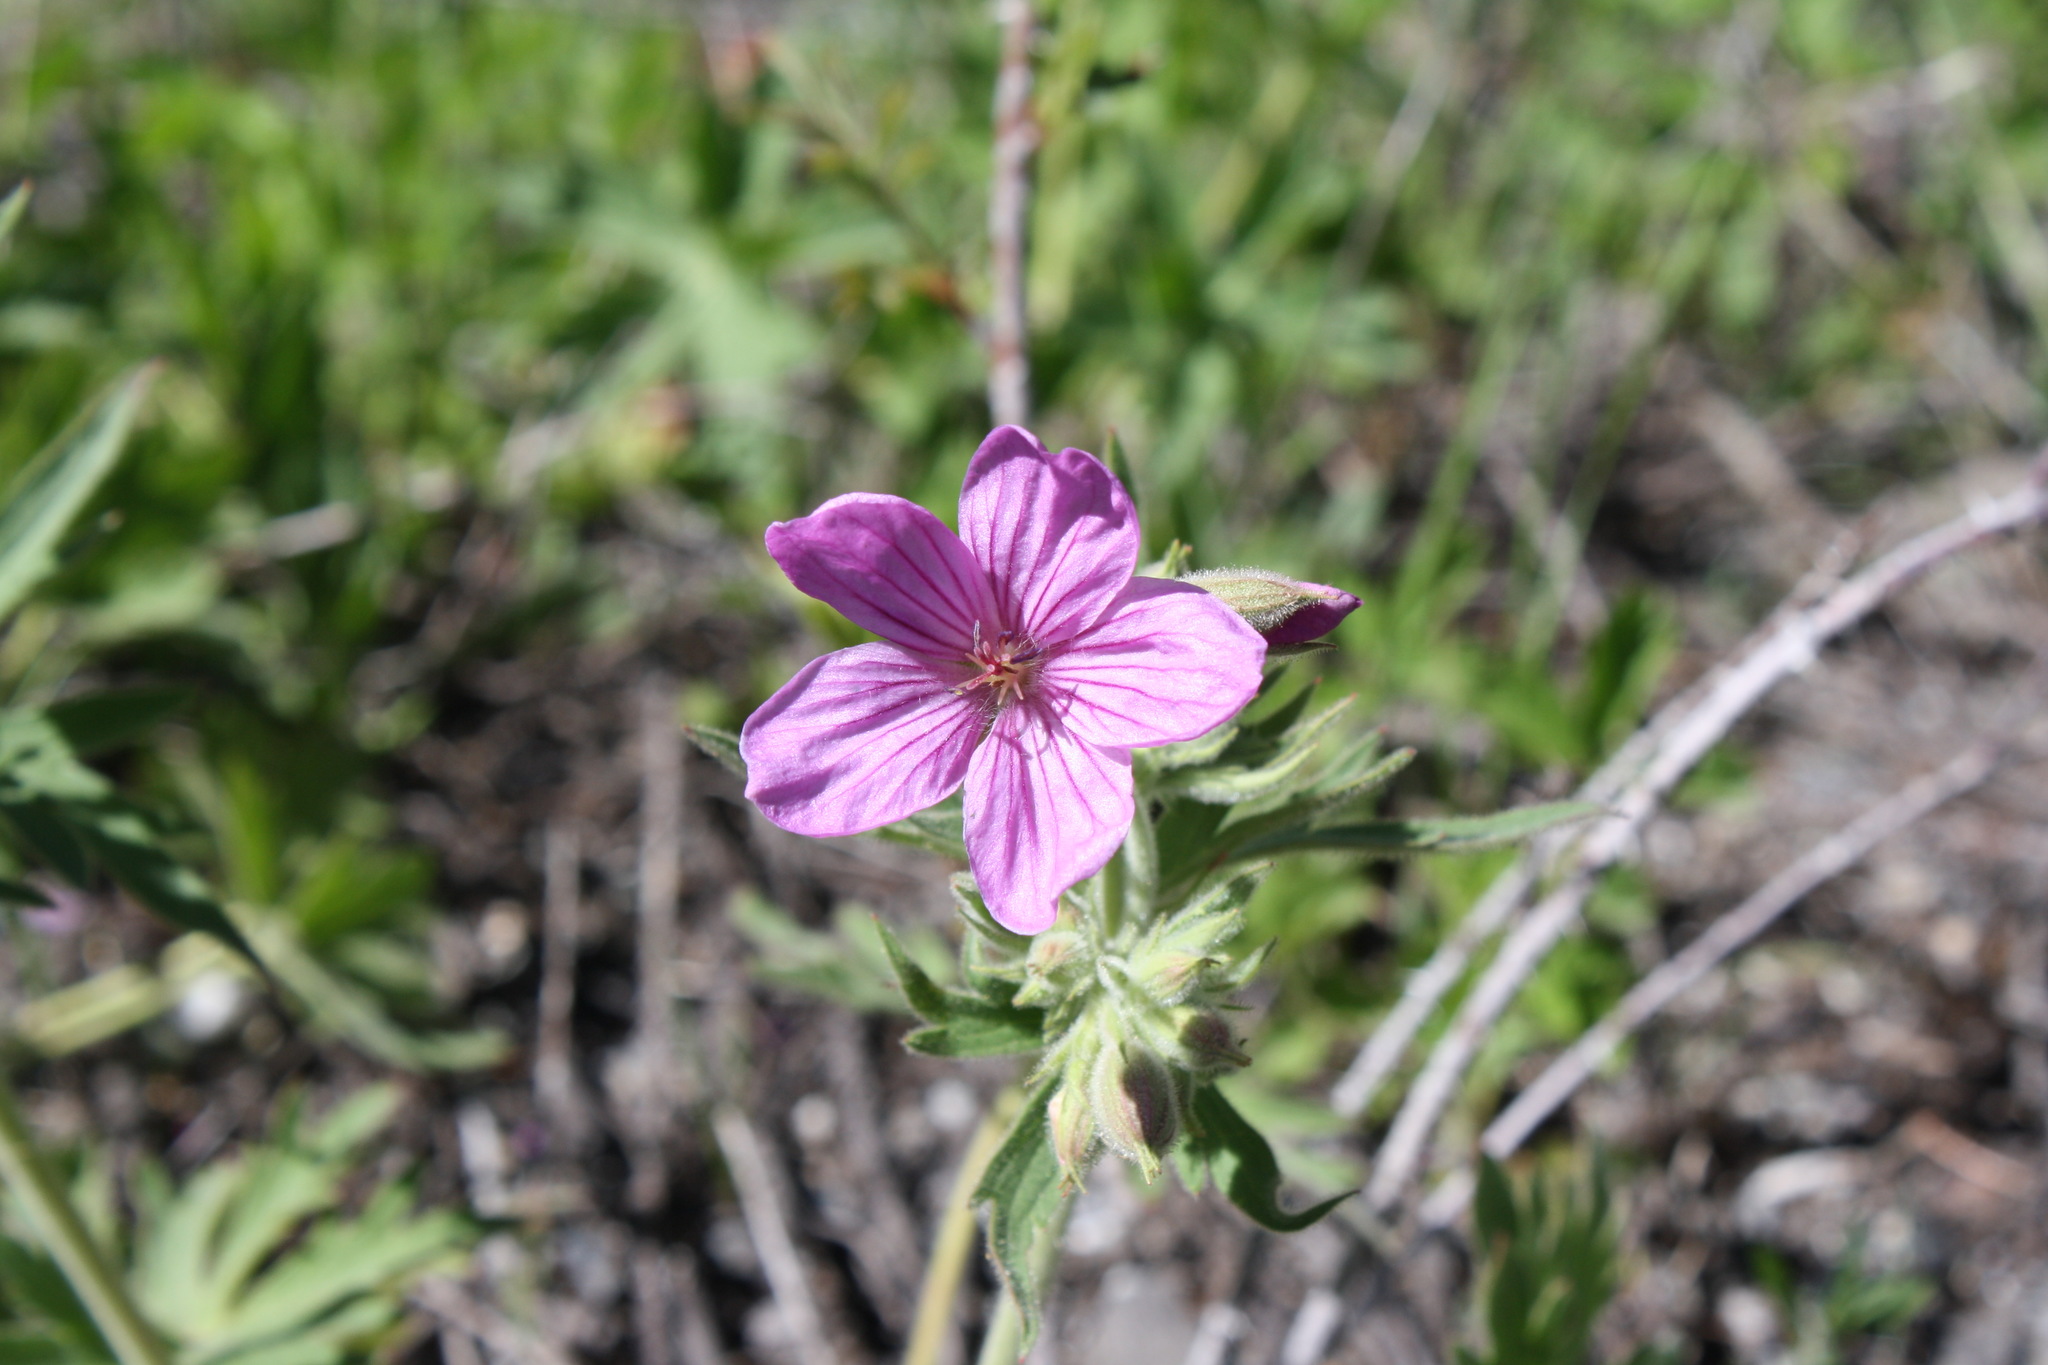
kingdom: Plantae
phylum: Tracheophyta
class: Magnoliopsida
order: Geraniales
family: Geraniaceae
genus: Geranium
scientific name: Geranium viscosissimum
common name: Purple geranium
